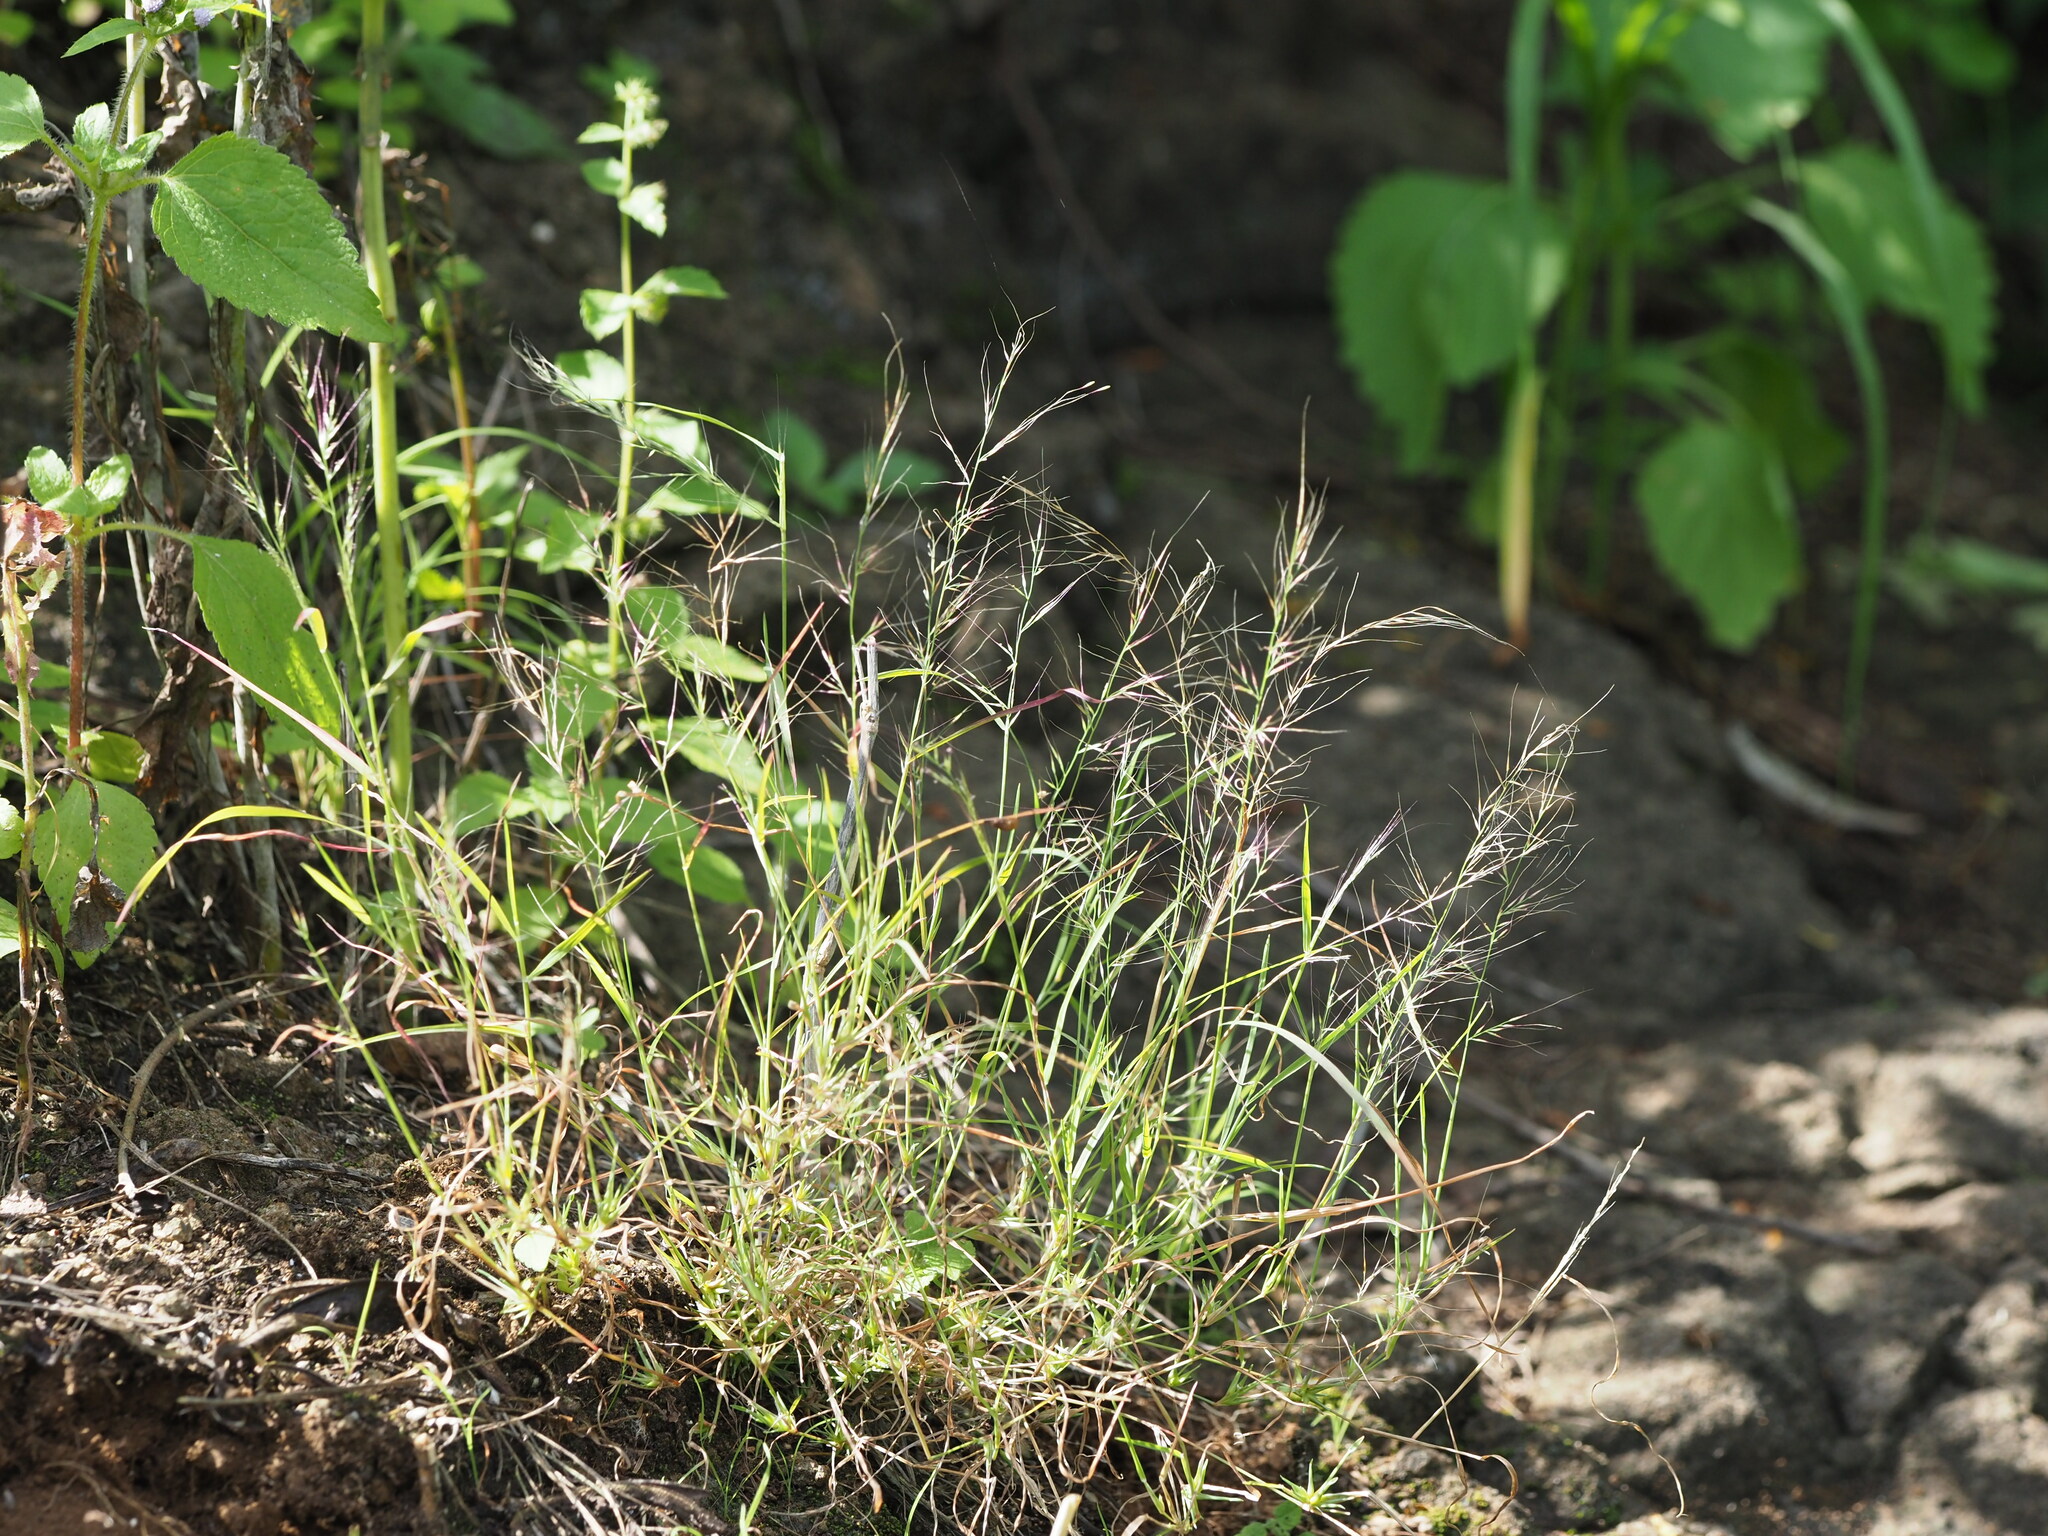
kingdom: Plantae
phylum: Tracheophyta
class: Liliopsida
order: Poales
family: Poaceae
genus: Muhlenbergia
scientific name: Muhlenbergia microsperma
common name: Littleseed muhly
